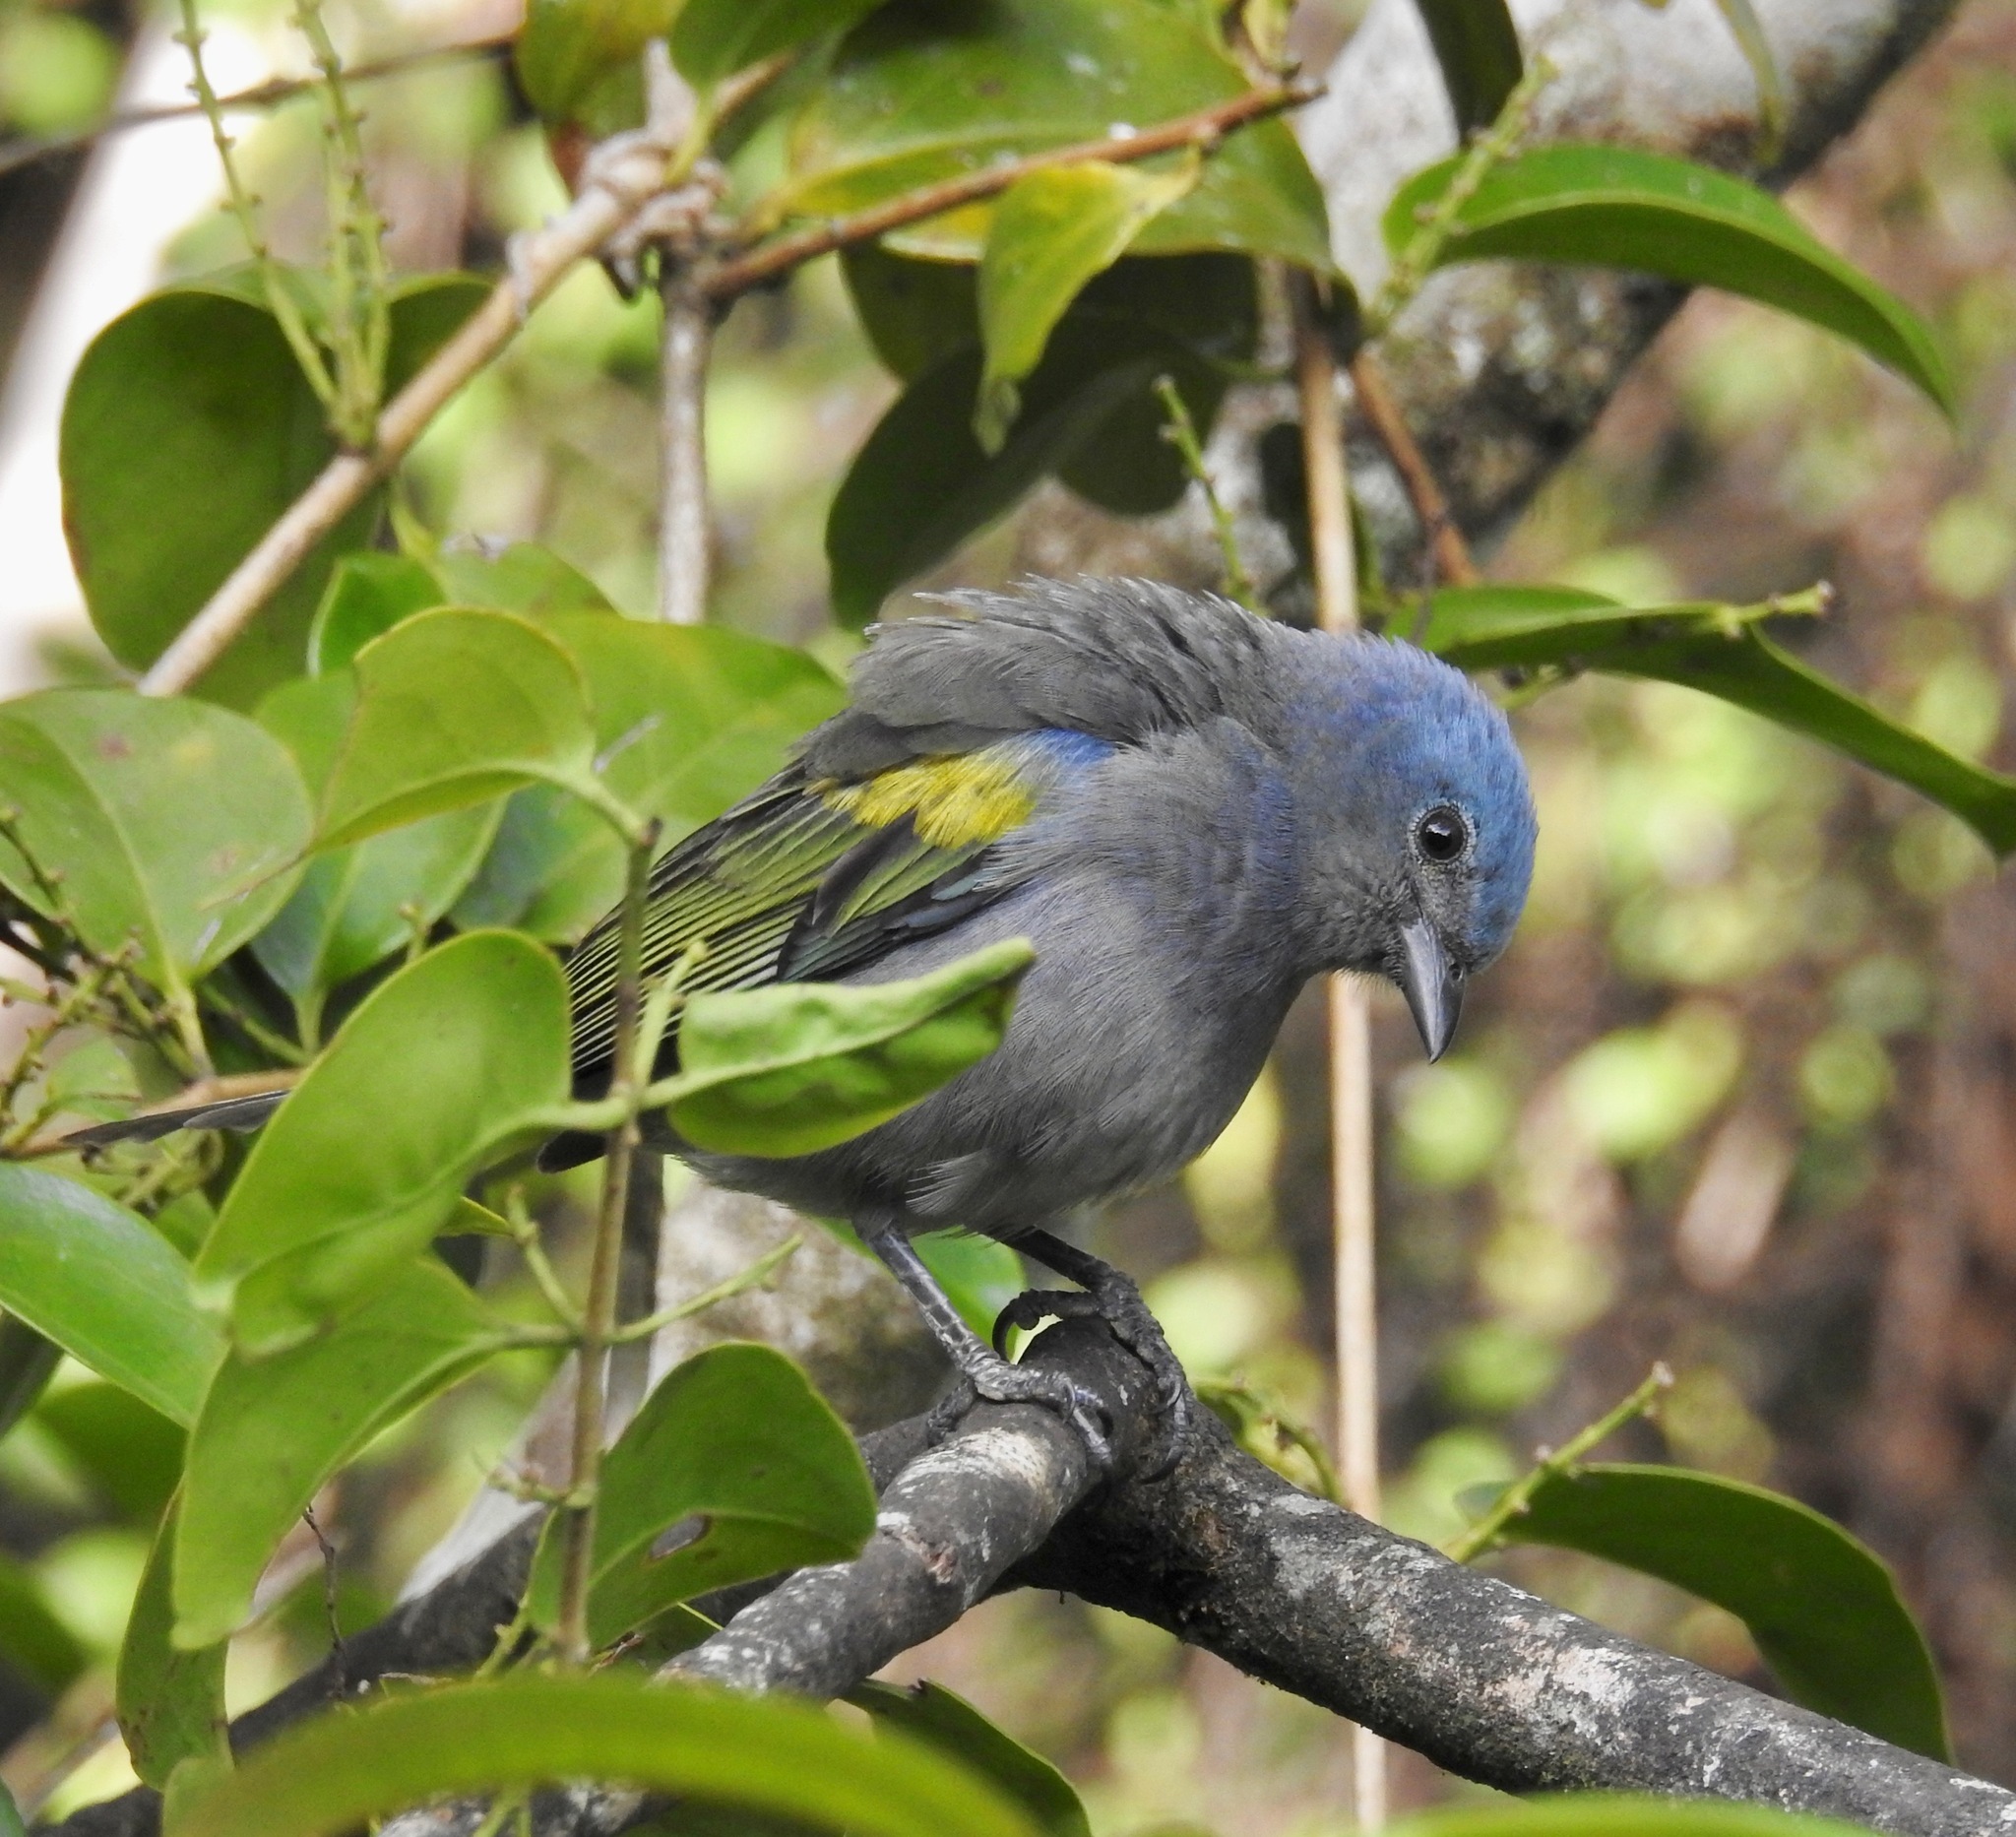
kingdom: Animalia
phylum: Chordata
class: Aves
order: Passeriformes
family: Thraupidae
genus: Thraupis
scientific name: Thraupis ornata
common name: Golden-chevroned tanager
